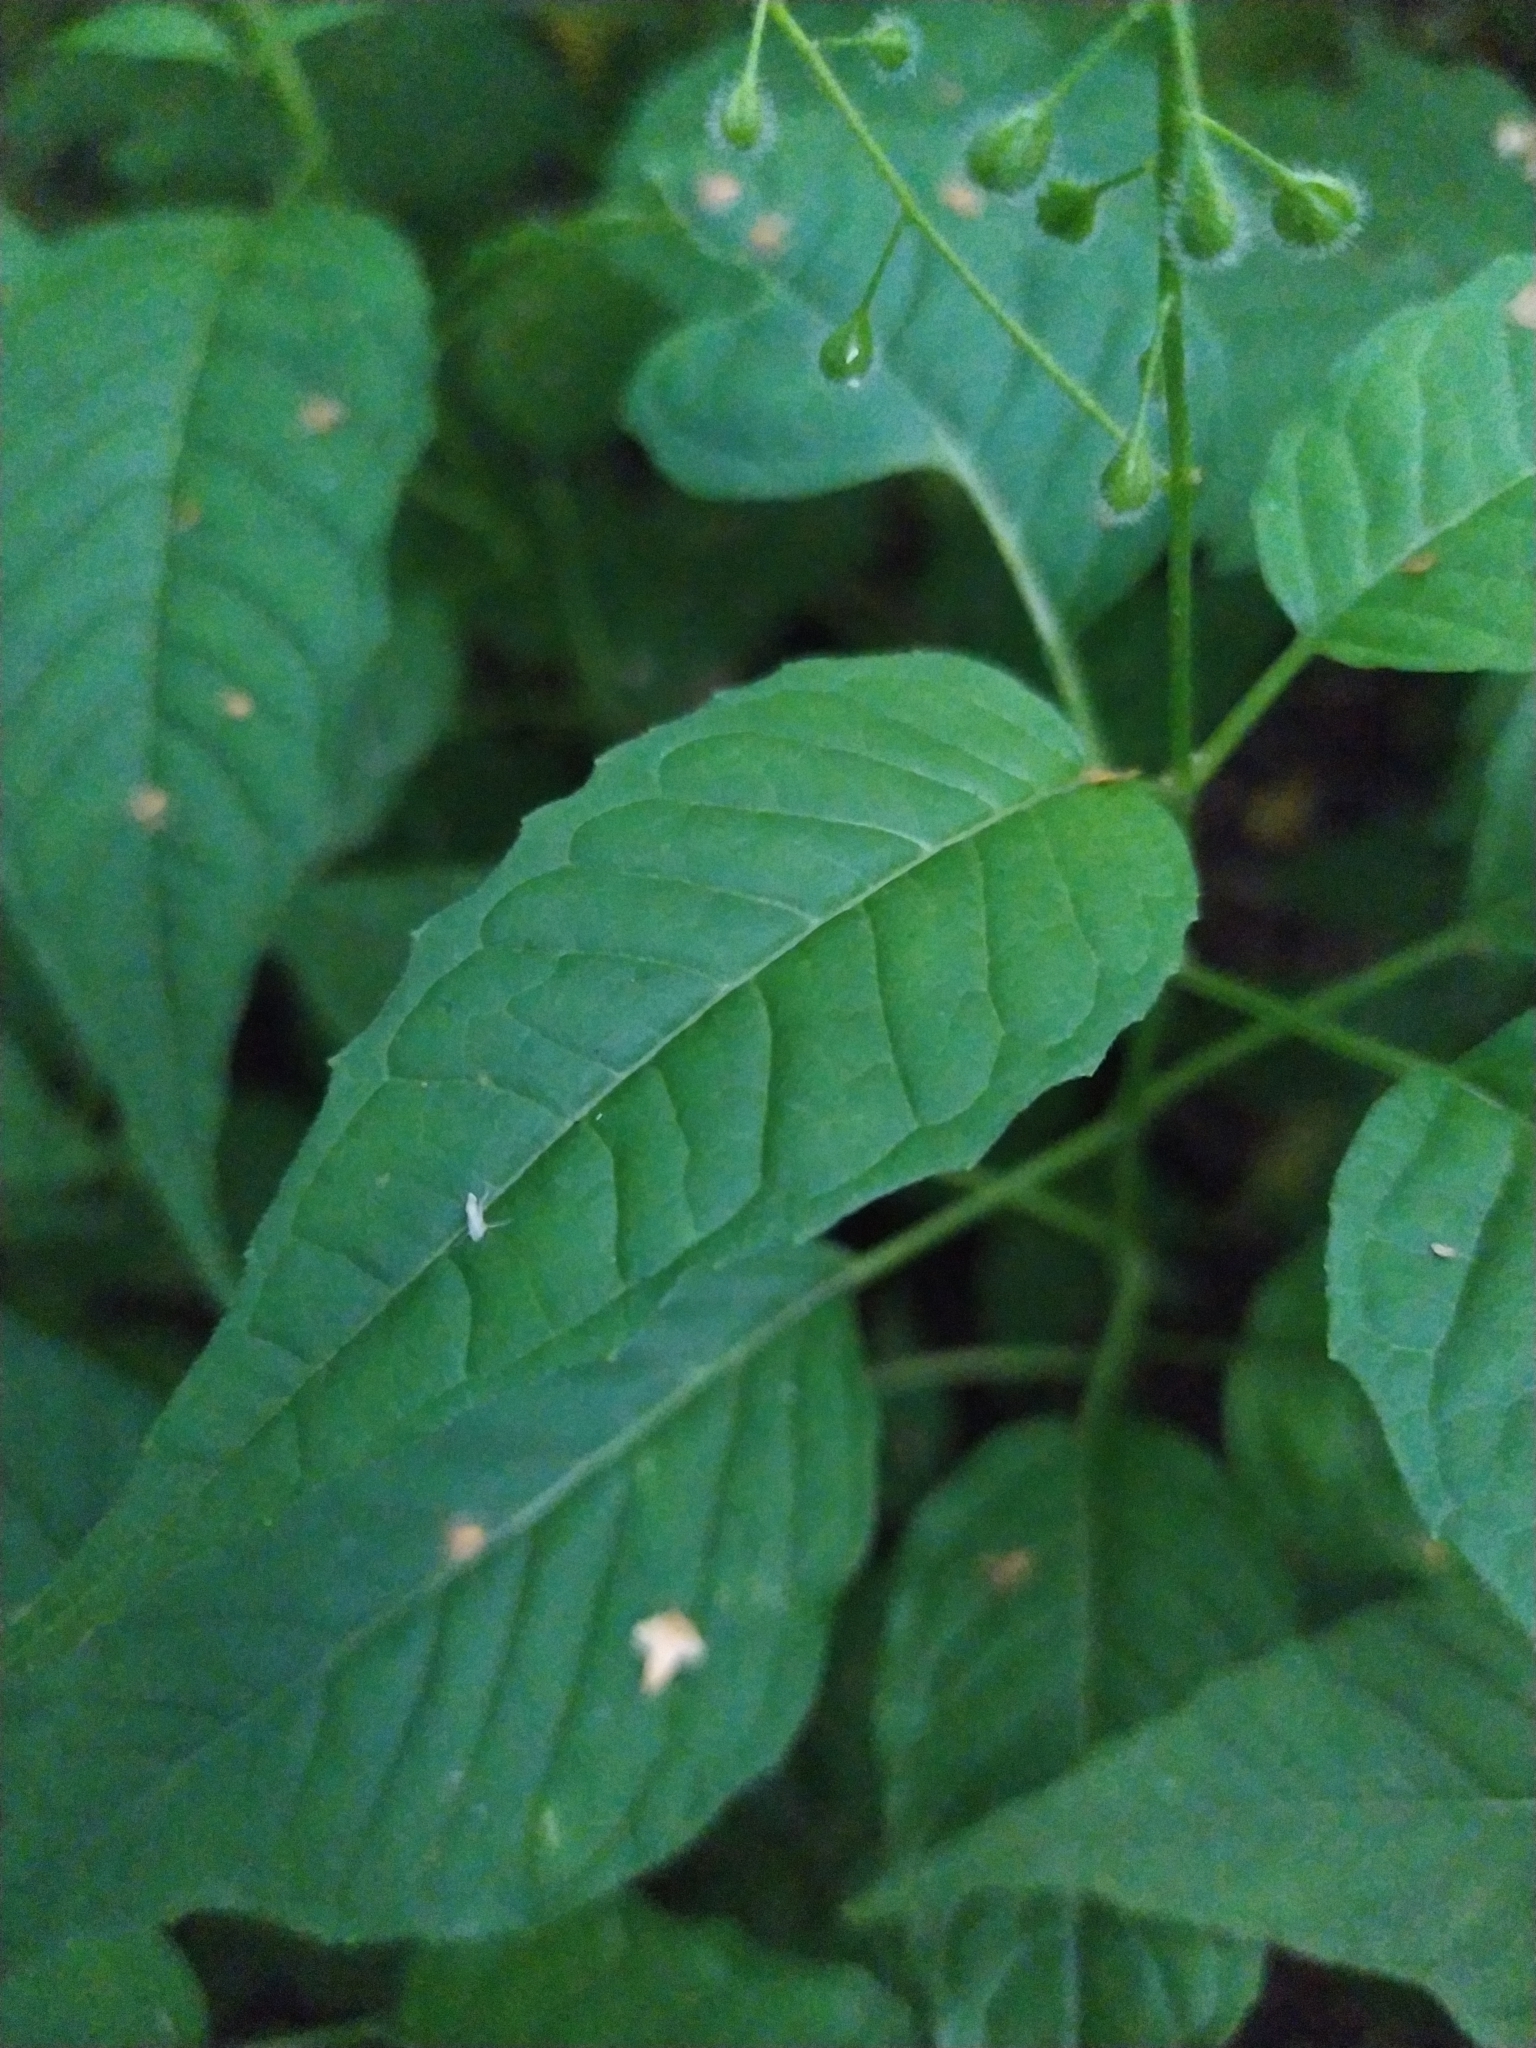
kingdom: Plantae
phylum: Tracheophyta
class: Magnoliopsida
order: Myrtales
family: Onagraceae
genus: Circaea
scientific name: Circaea lutetiana
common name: Enchanter's-nightshade
